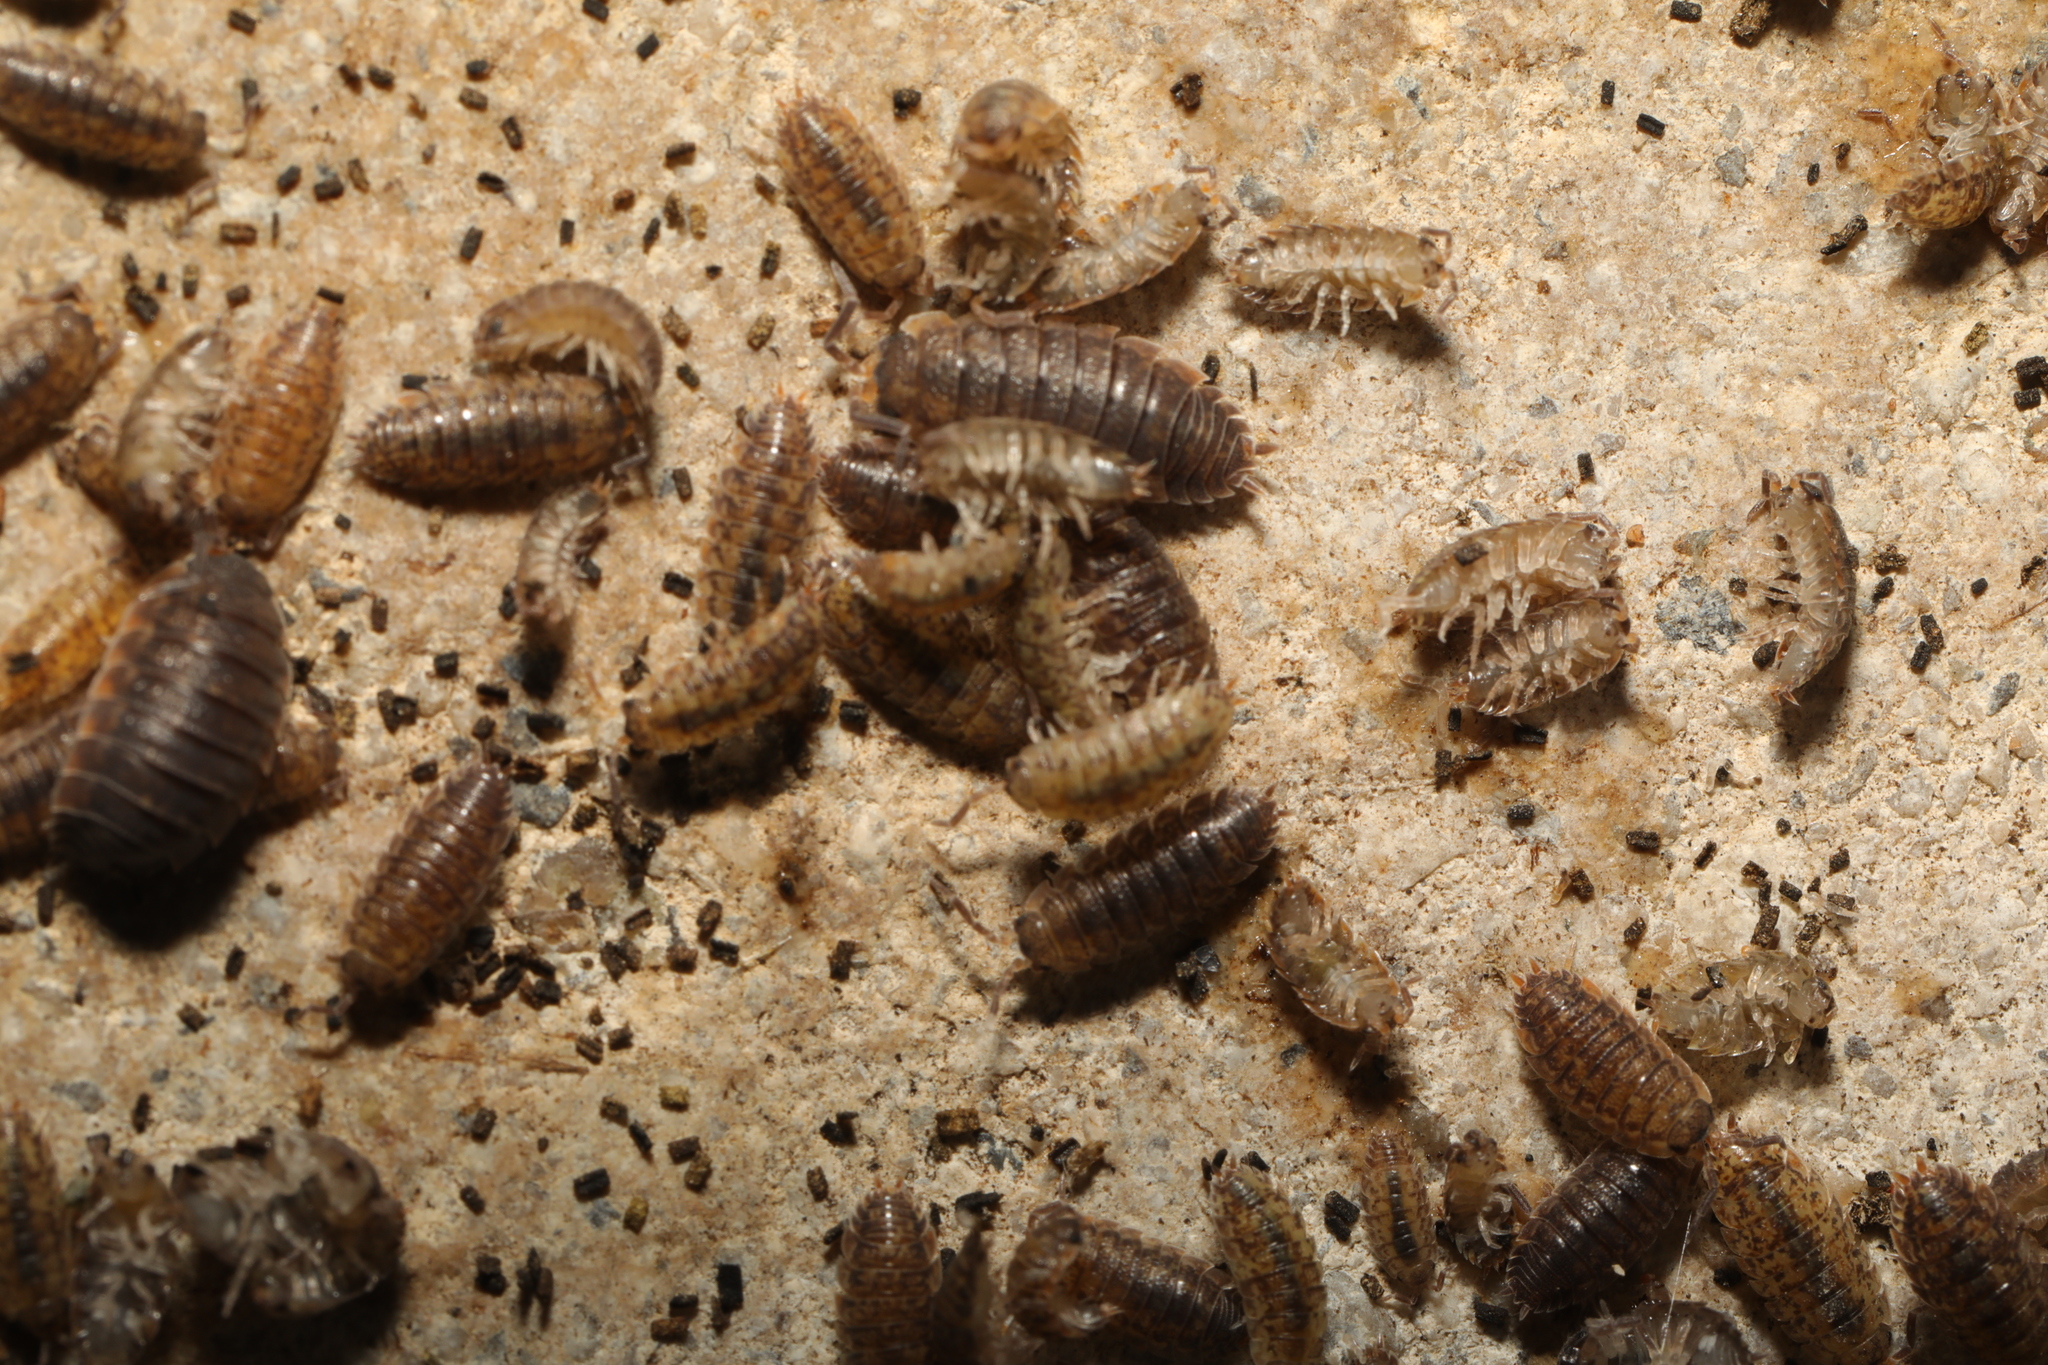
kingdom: Animalia
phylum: Arthropoda
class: Malacostraca
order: Isopoda
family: Porcellionidae
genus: Porcellio
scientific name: Porcellio scaber
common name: Common rough woodlouse
